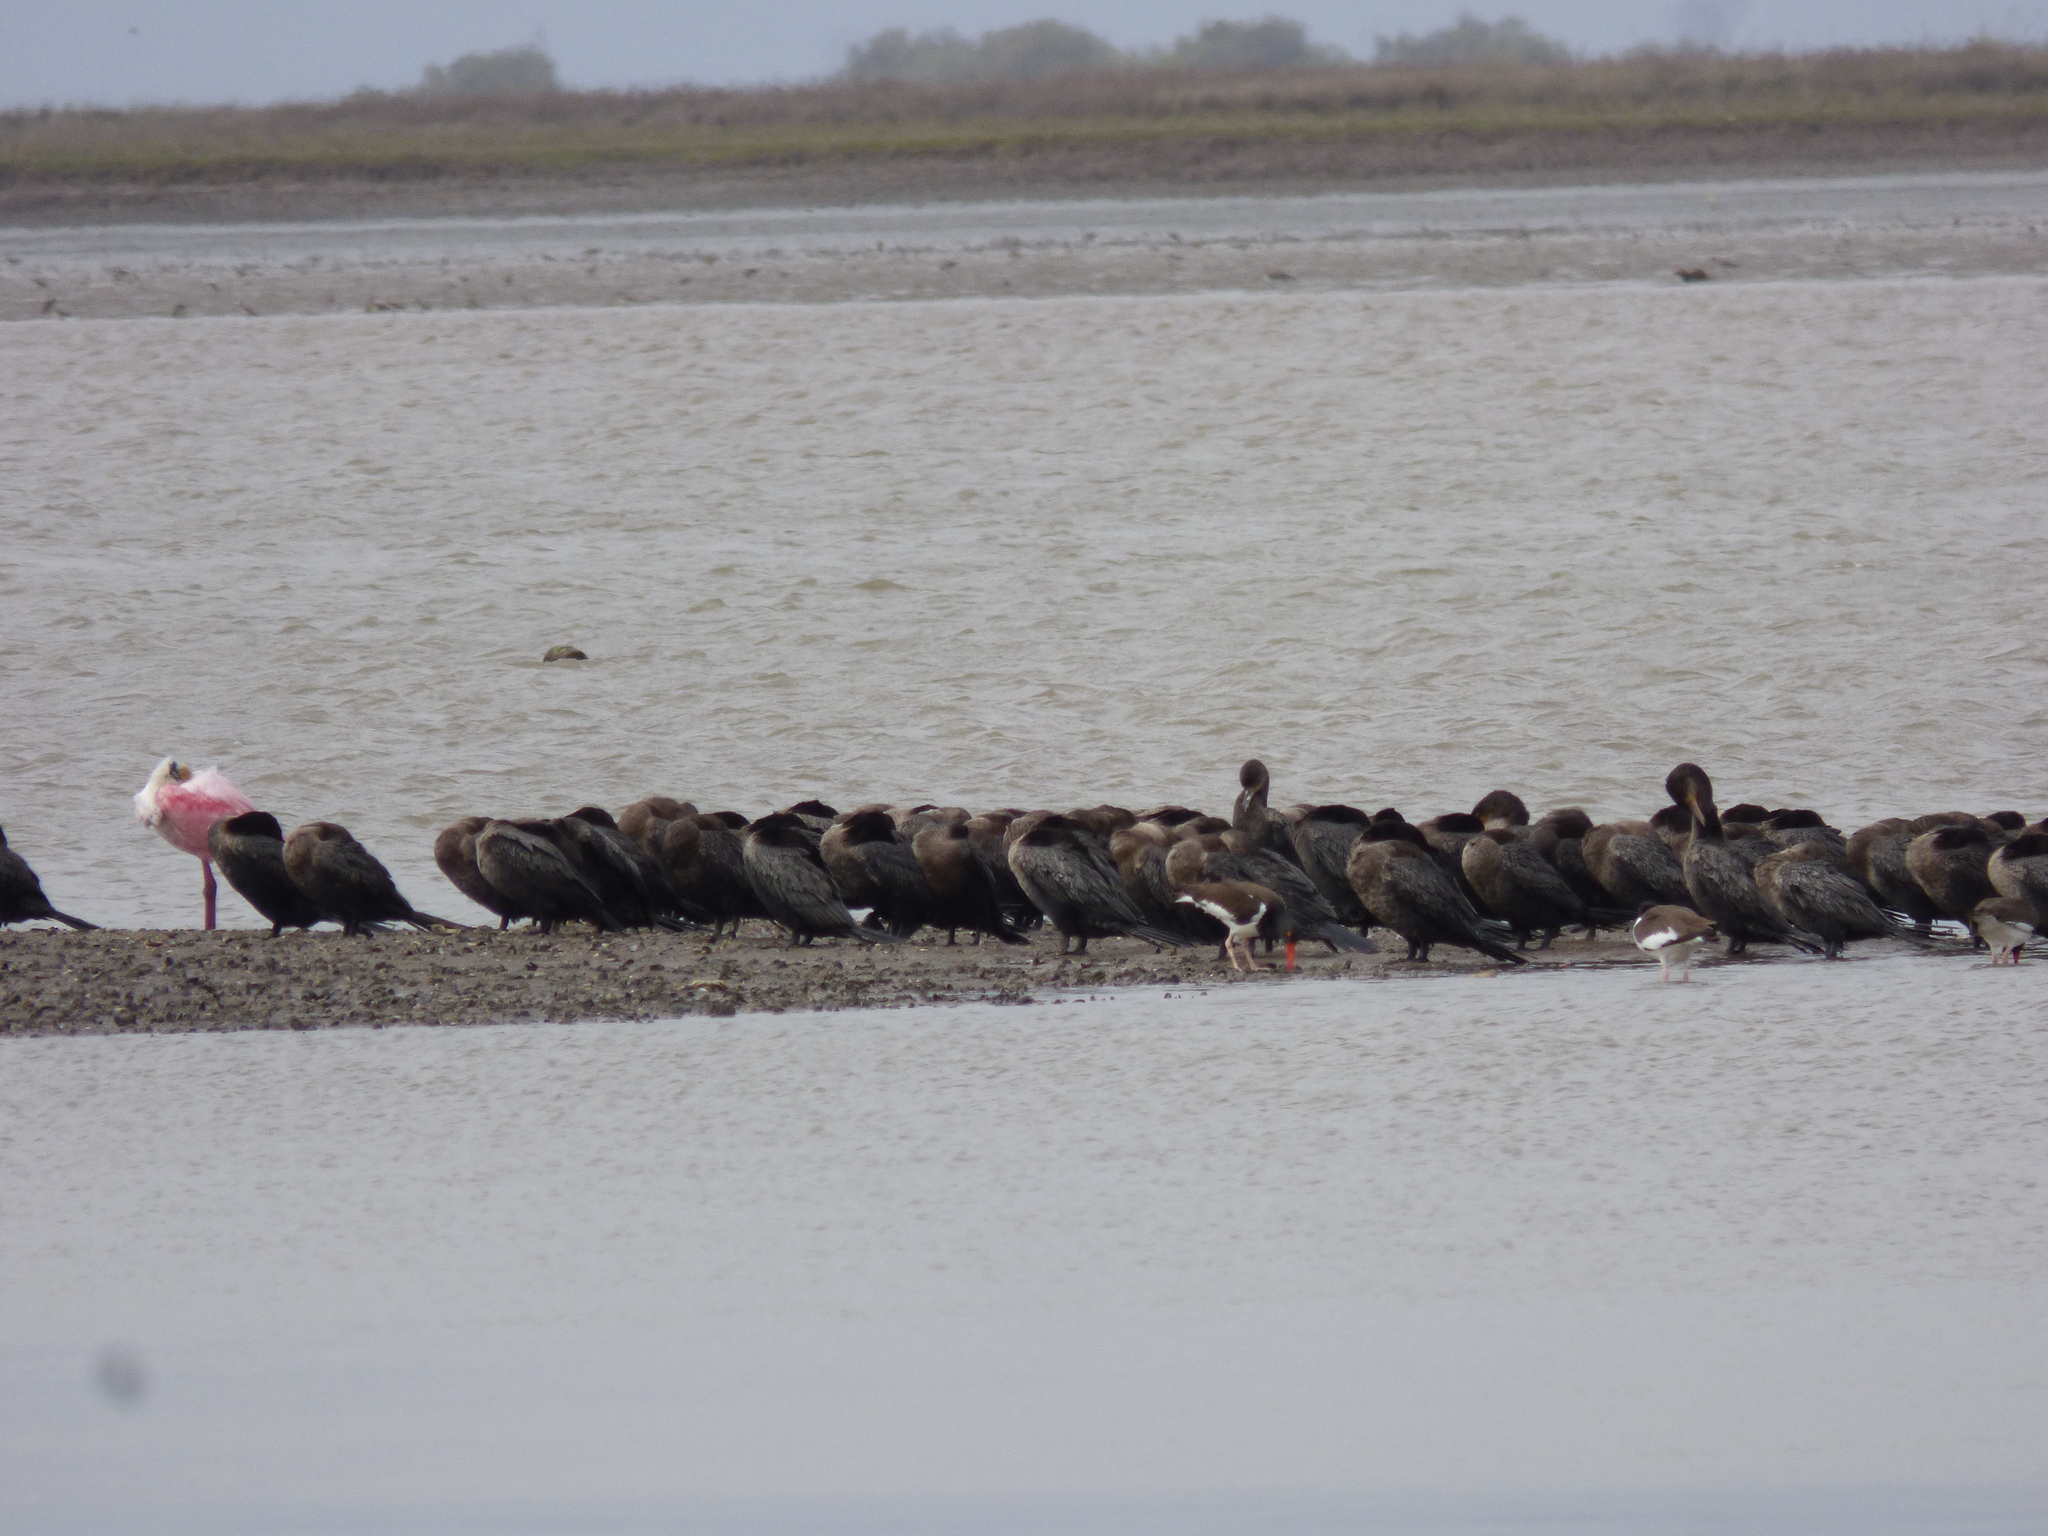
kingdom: Animalia
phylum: Chordata
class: Aves
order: Suliformes
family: Phalacrocoracidae
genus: Phalacrocorax
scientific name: Phalacrocorax brasilianus
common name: Neotropic cormorant
